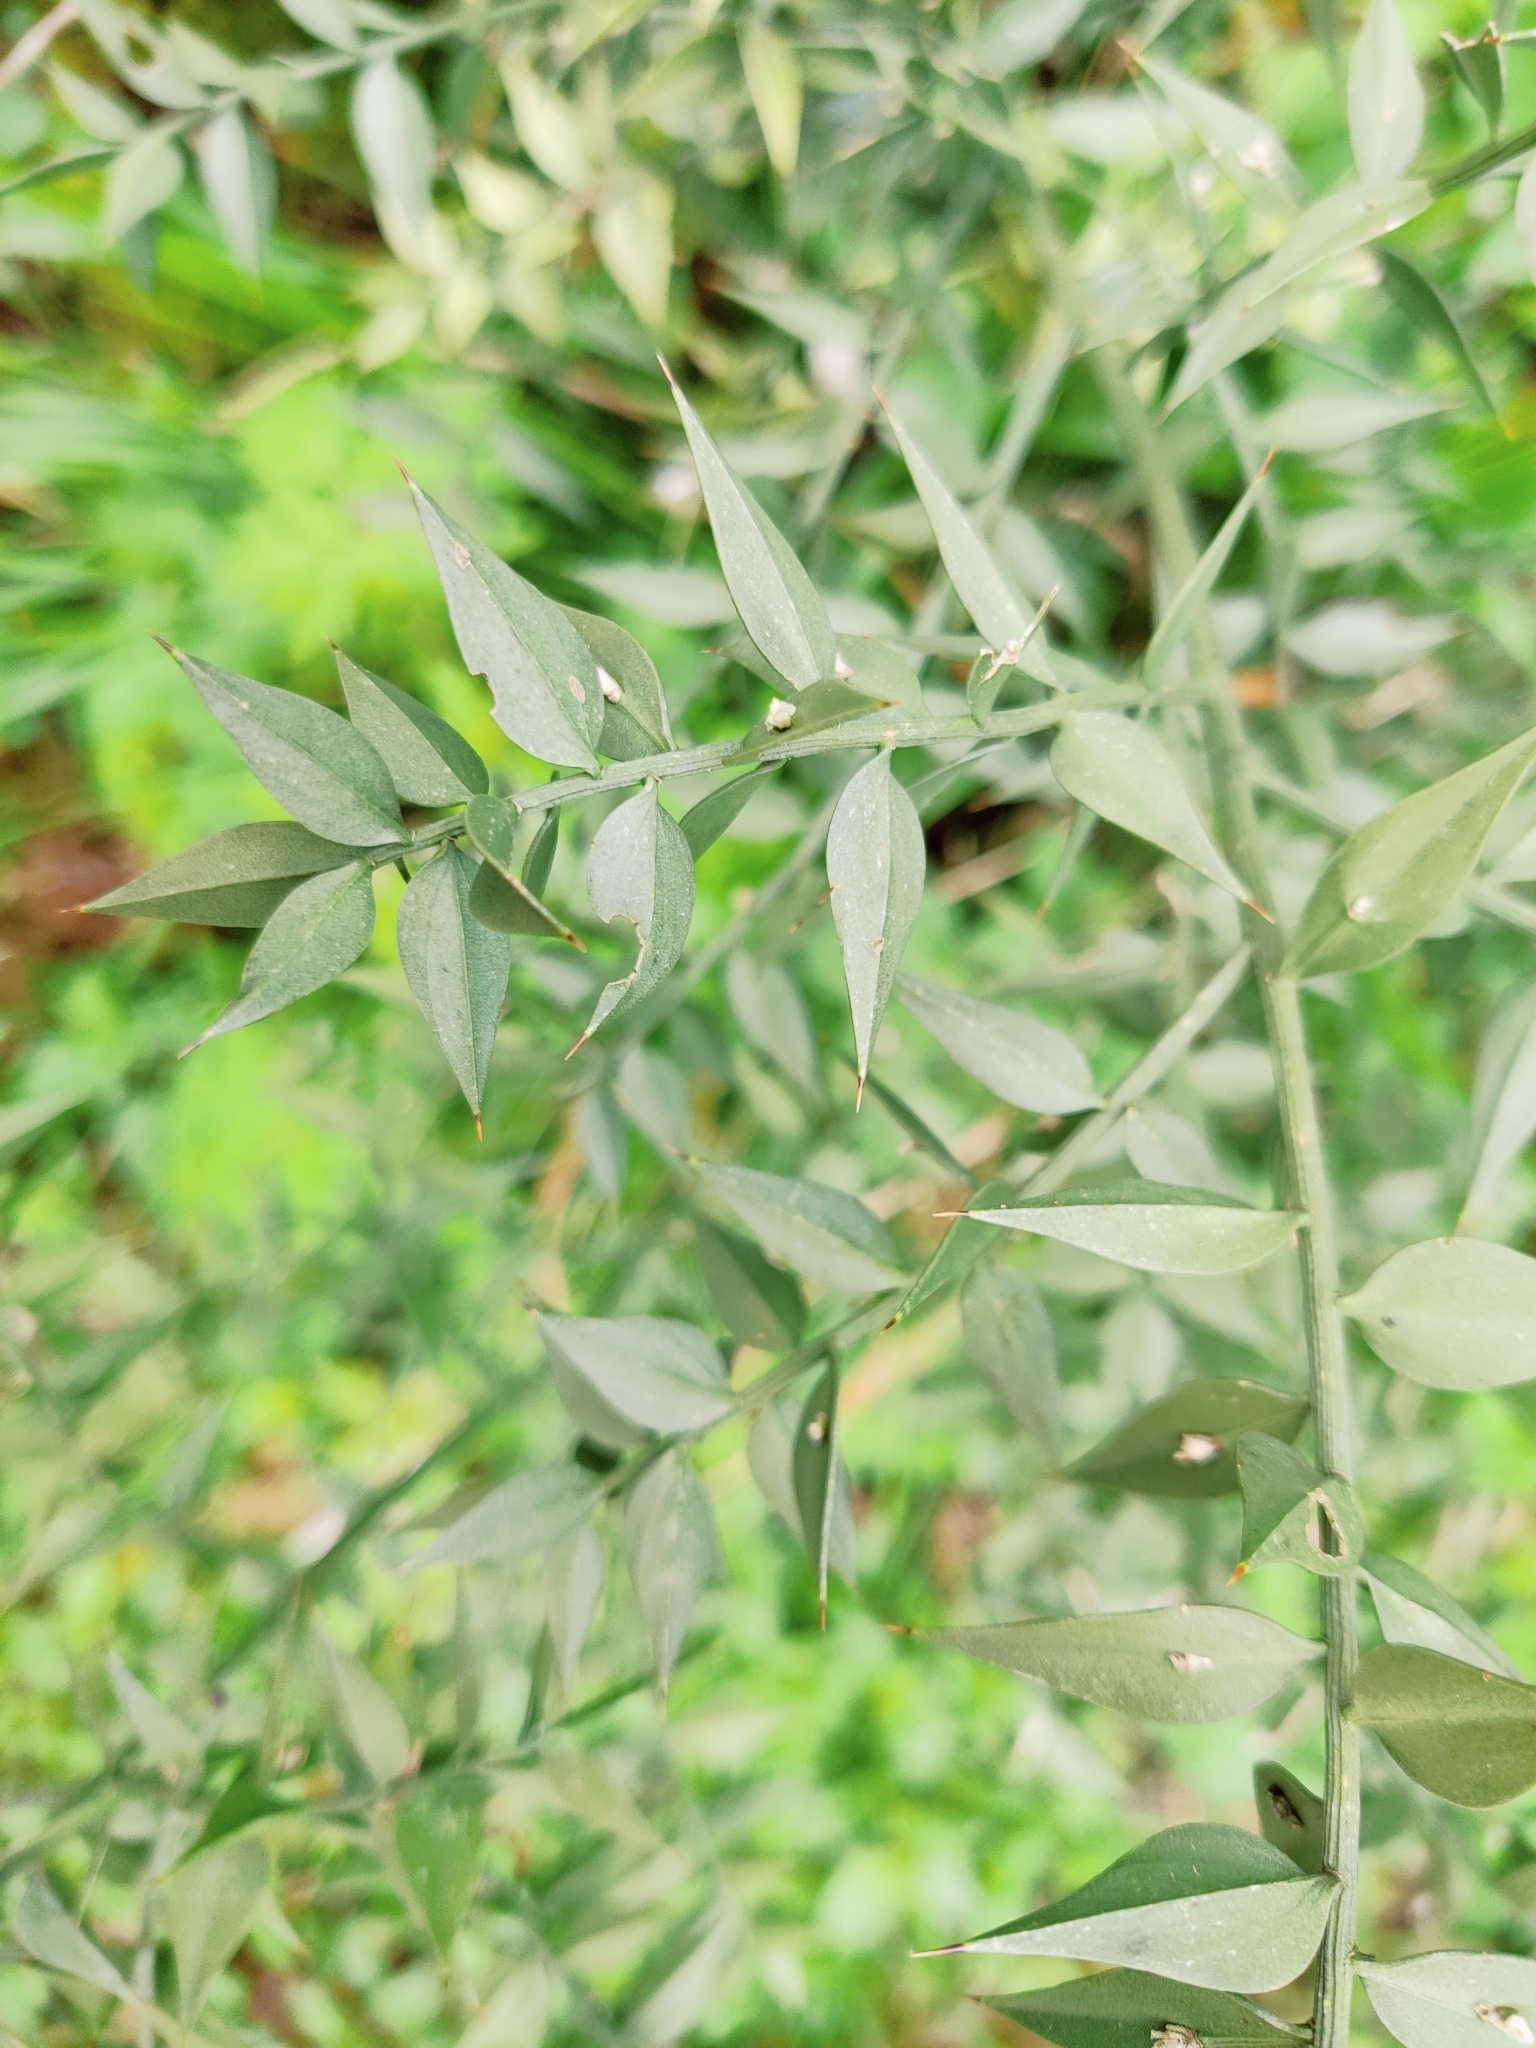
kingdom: Plantae
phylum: Tracheophyta
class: Liliopsida
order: Asparagales
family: Asparagaceae
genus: Ruscus
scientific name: Ruscus aculeatus
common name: Butcher's-broom
